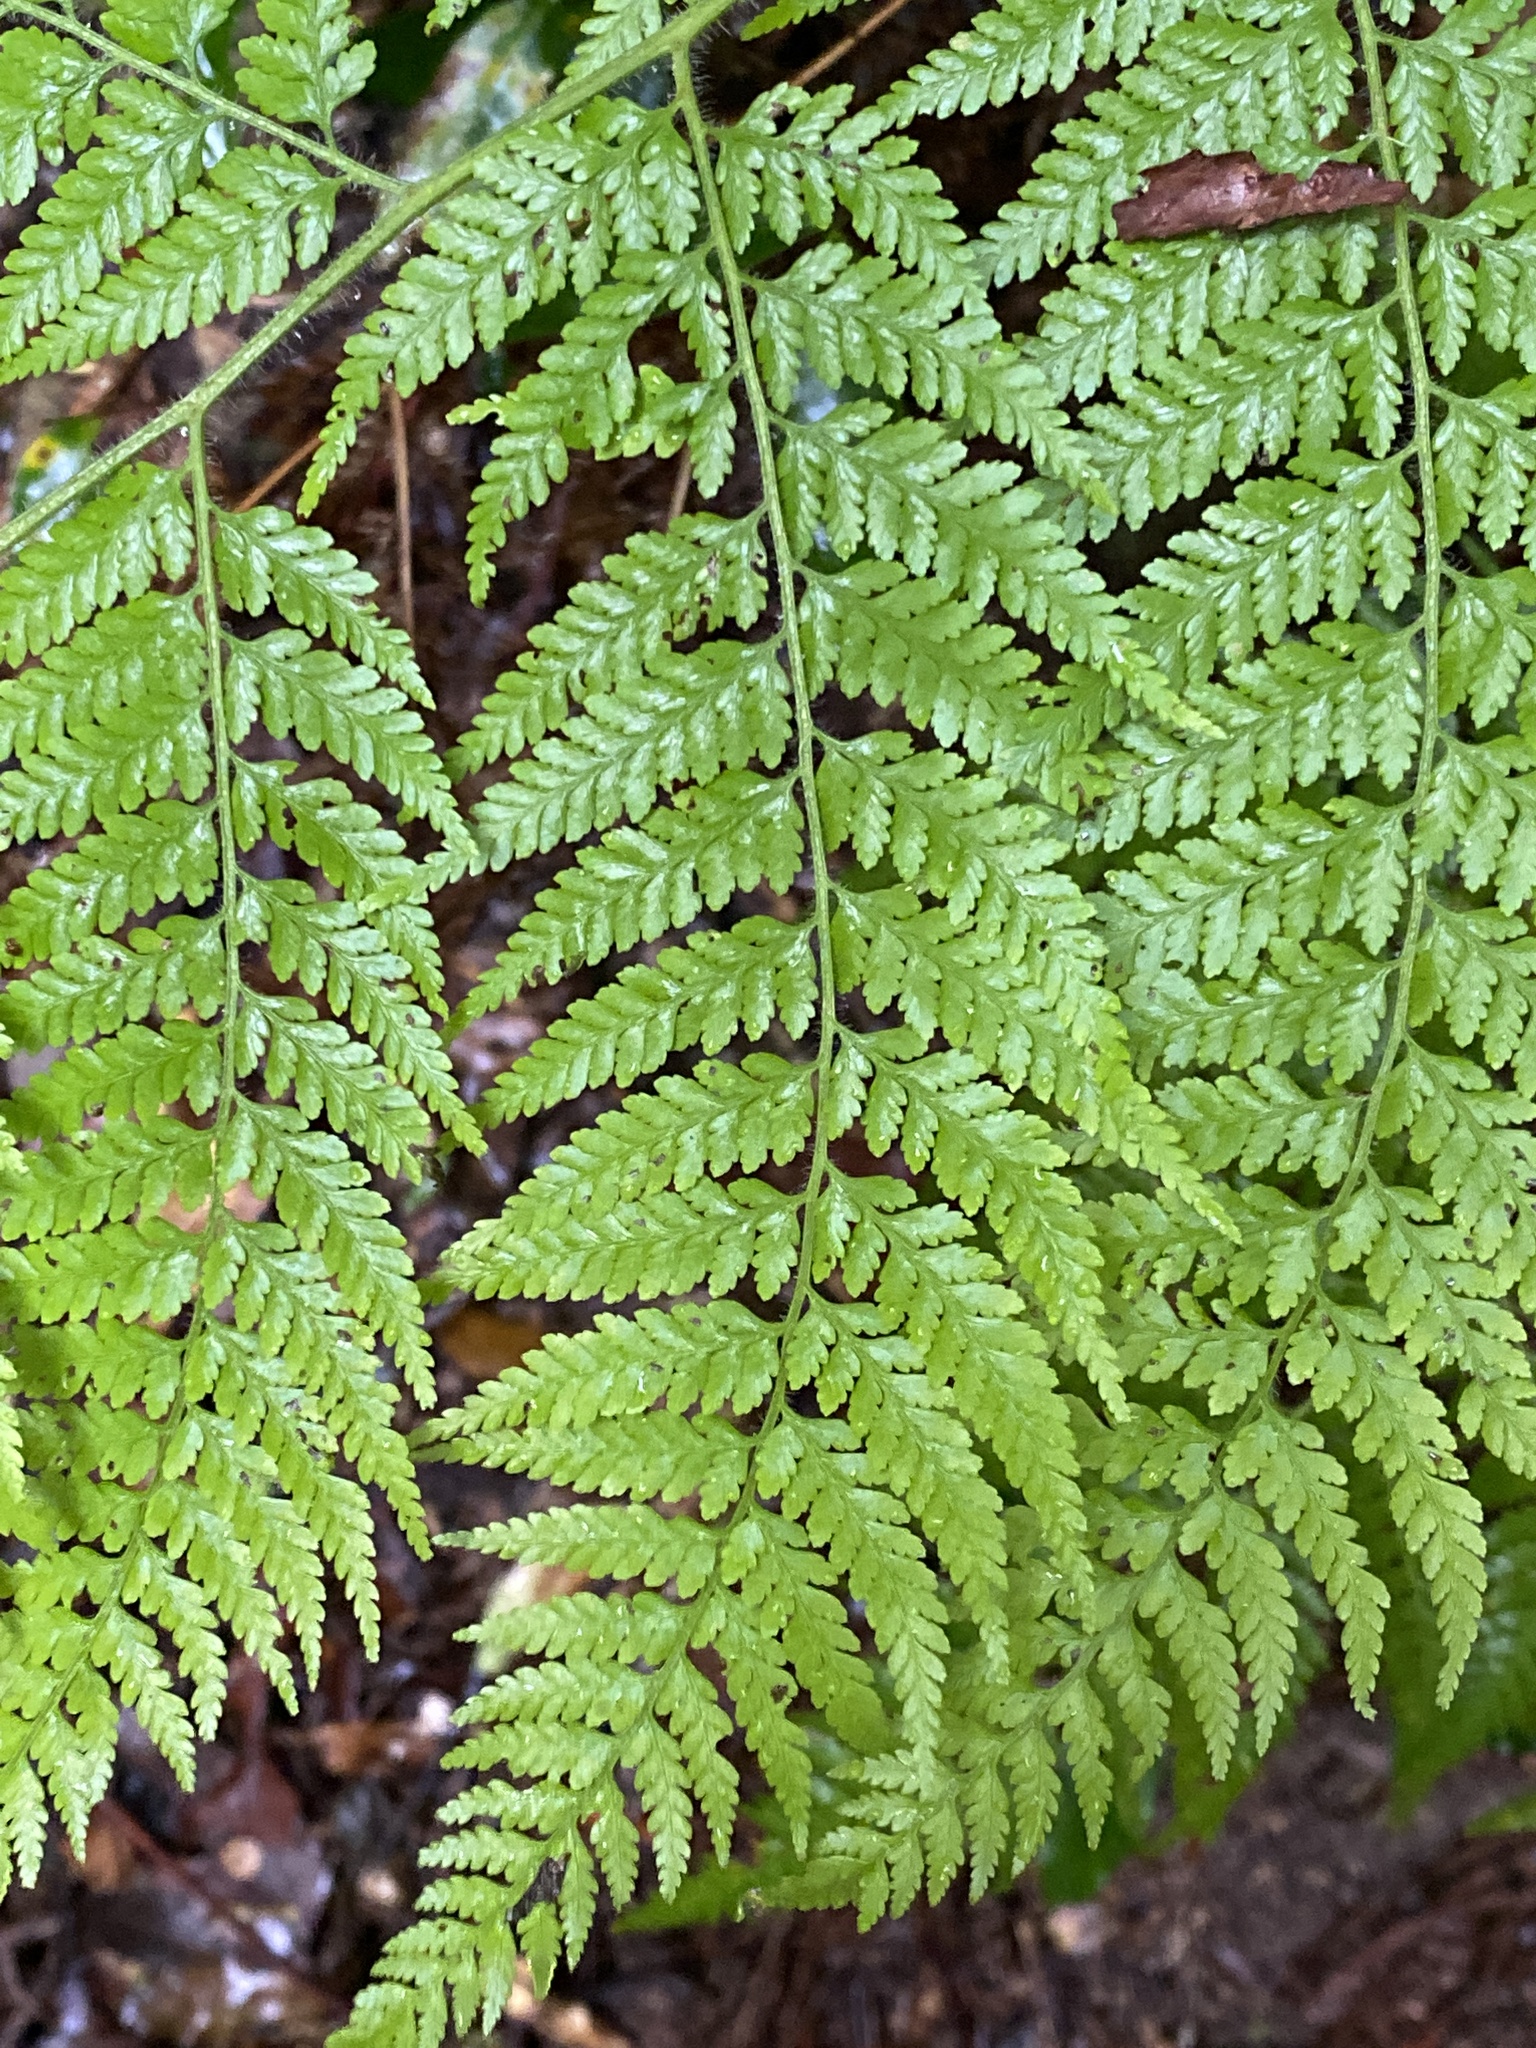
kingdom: Plantae
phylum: Tracheophyta
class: Polypodiopsida
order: Cyatheales
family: Dicksoniaceae
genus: Calochlaena
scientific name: Calochlaena dubia
